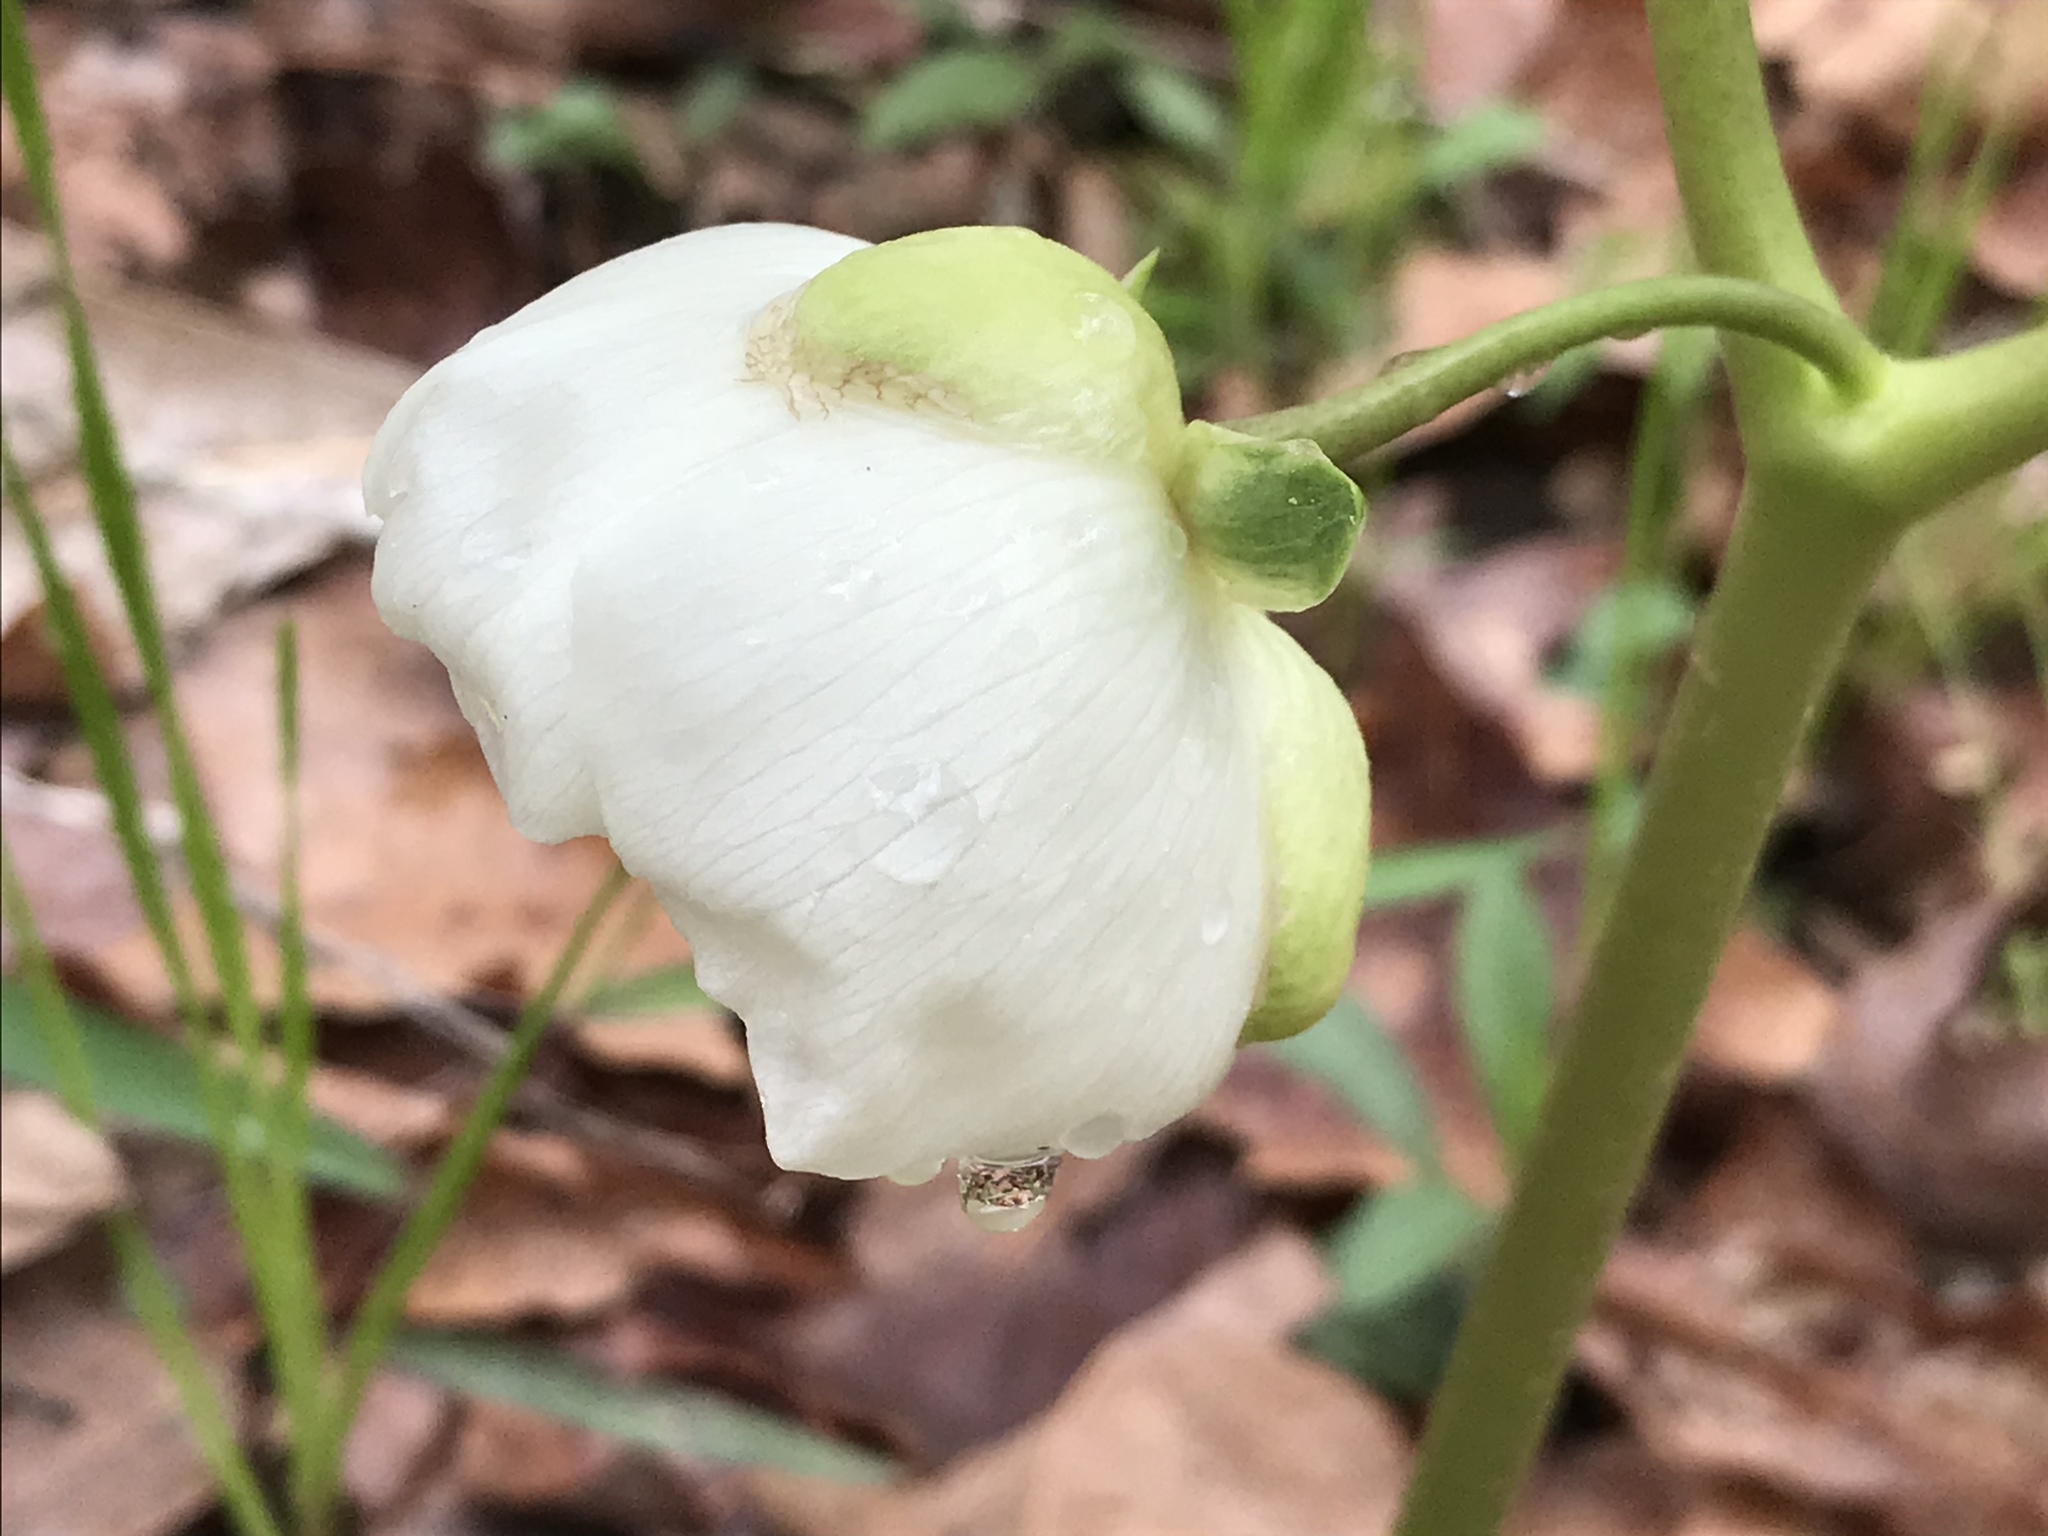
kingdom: Plantae
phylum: Tracheophyta
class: Magnoliopsida
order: Ranunculales
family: Berberidaceae
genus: Podophyllum
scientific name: Podophyllum peltatum
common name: Wild mandrake
